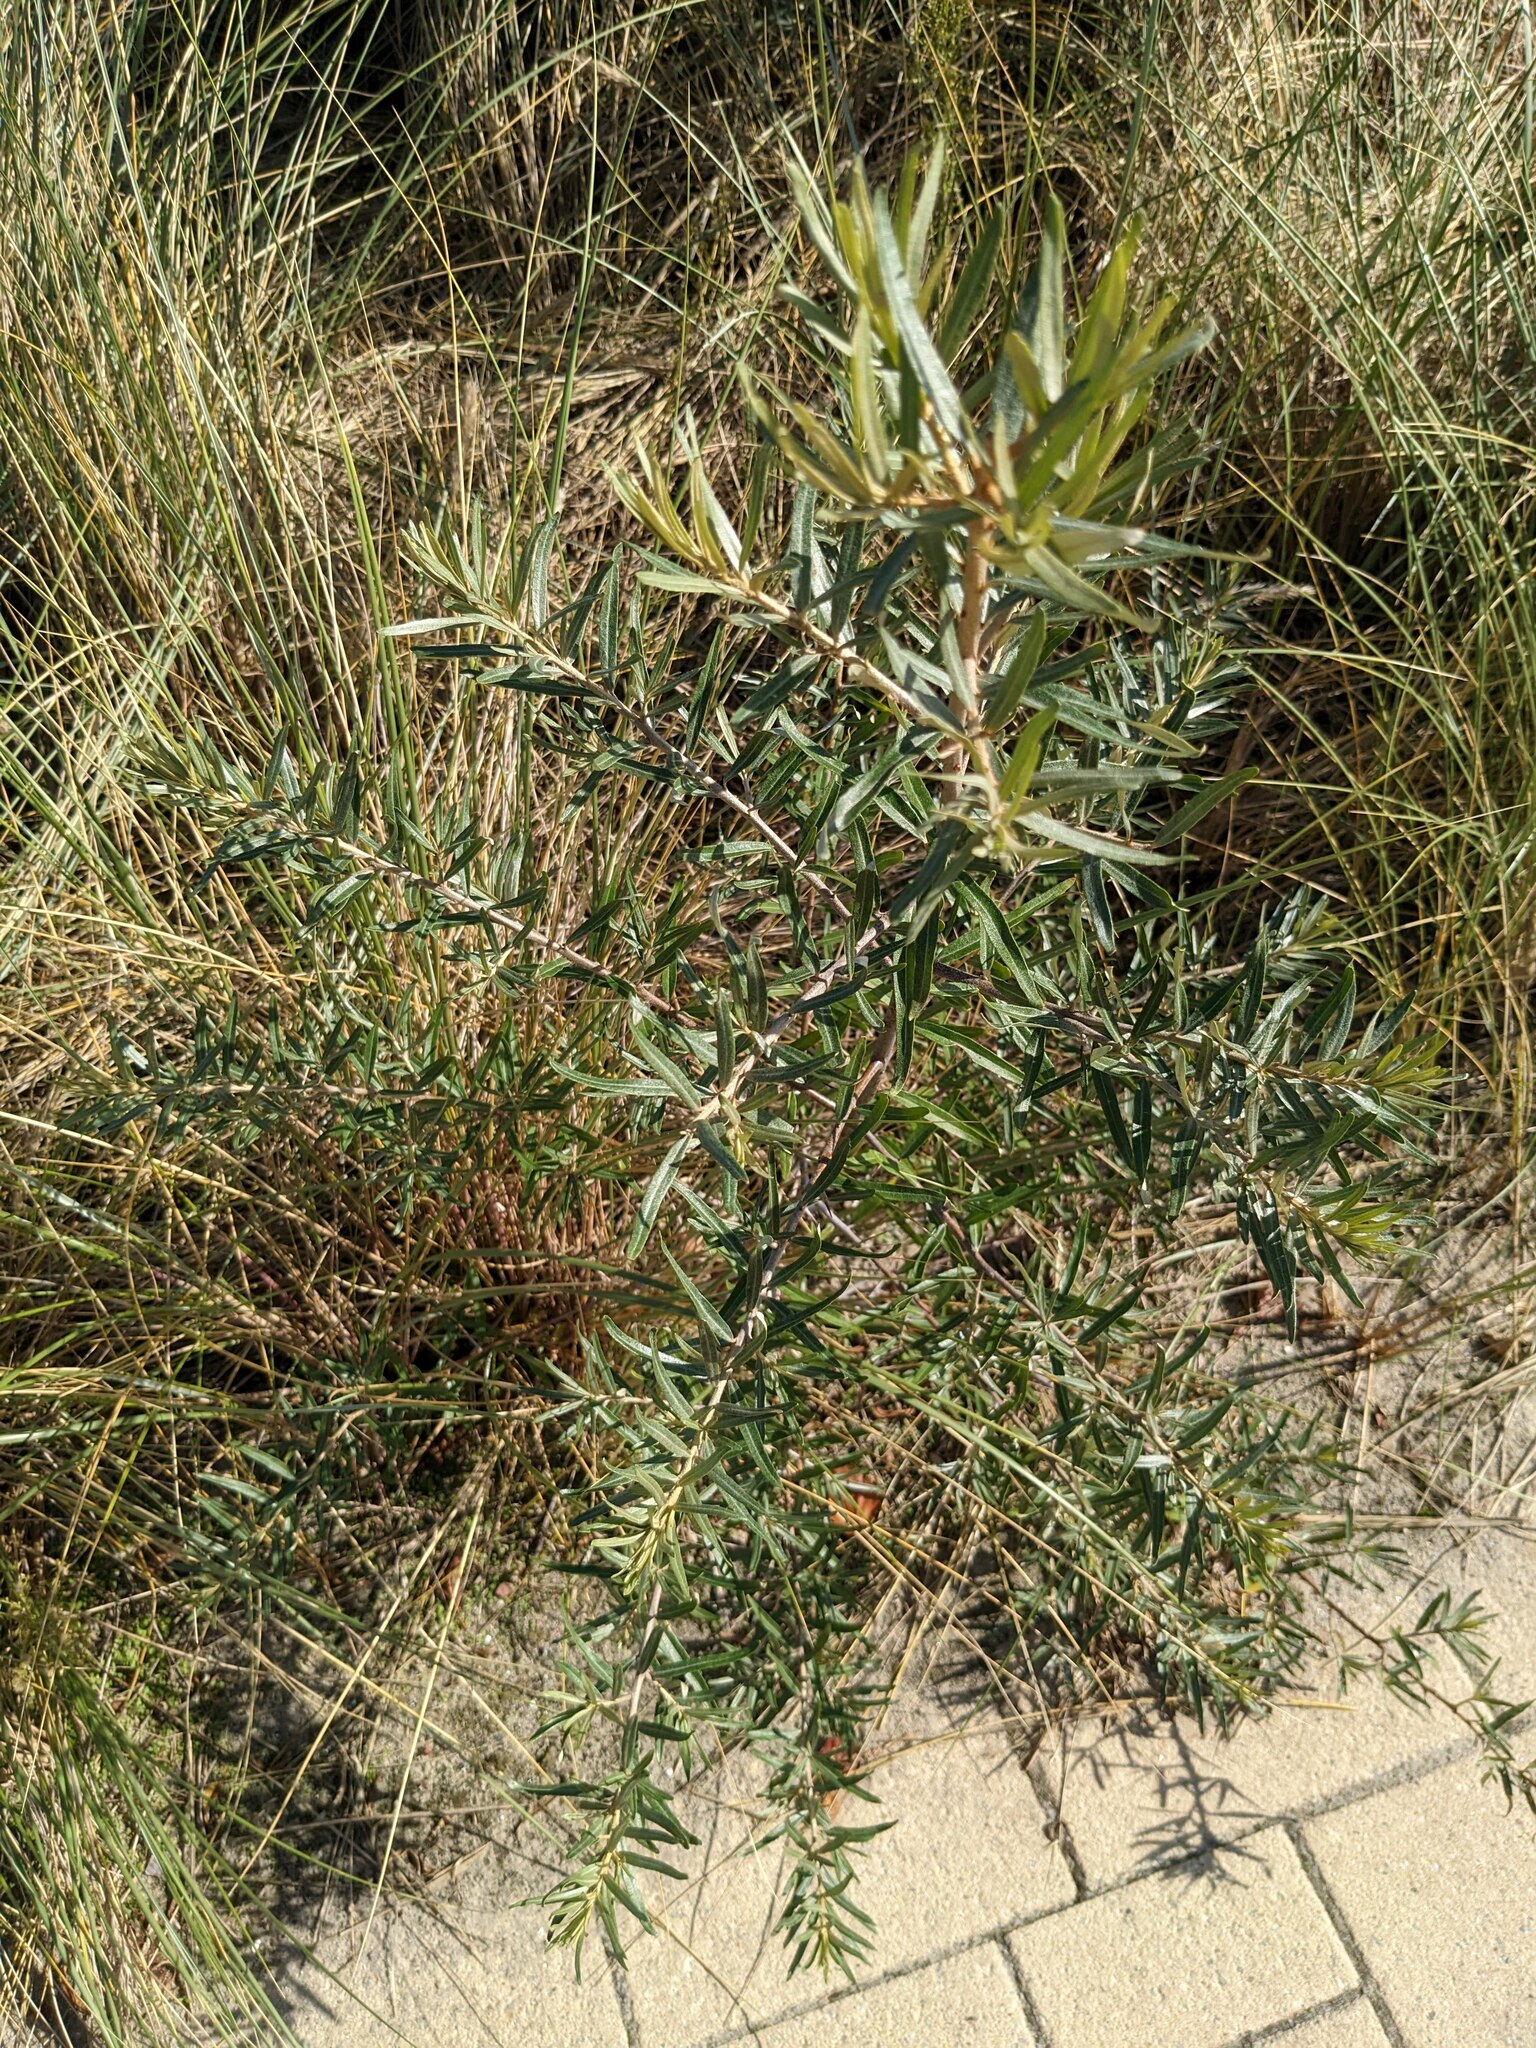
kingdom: Plantae
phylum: Tracheophyta
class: Magnoliopsida
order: Rosales
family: Elaeagnaceae
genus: Hippophae
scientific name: Hippophae rhamnoides
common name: Sea-buckthorn
